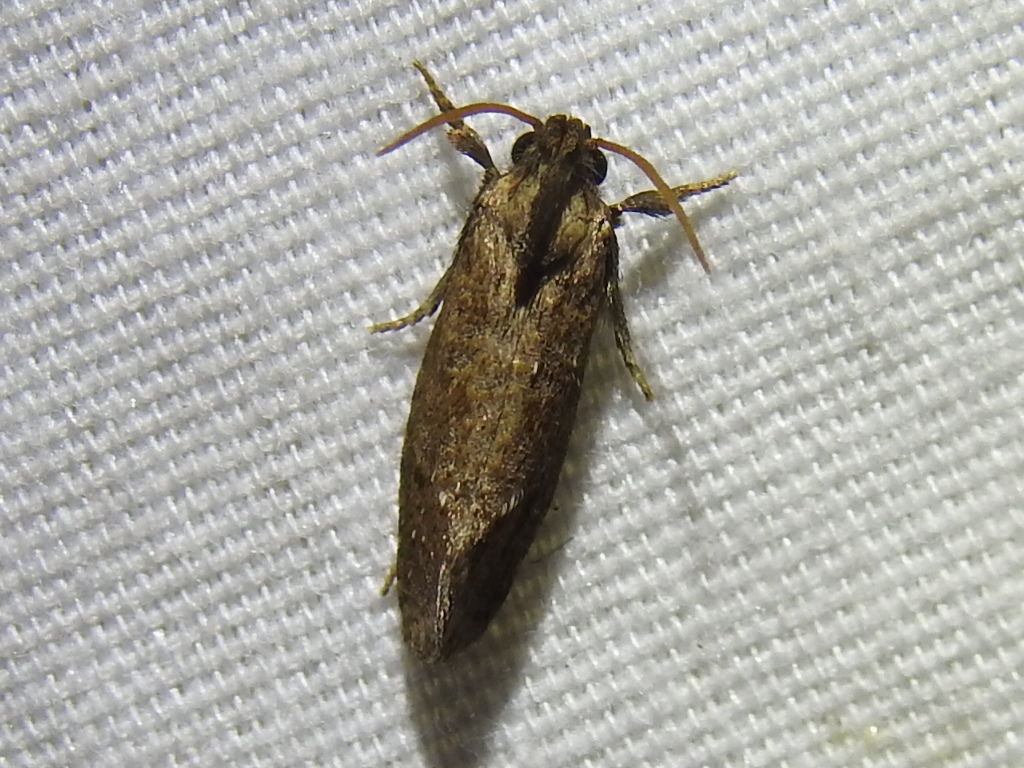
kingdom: Animalia
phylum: Arthropoda
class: Insecta
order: Lepidoptera
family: Tineidae
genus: Acrolophus
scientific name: Acrolophus texanella
